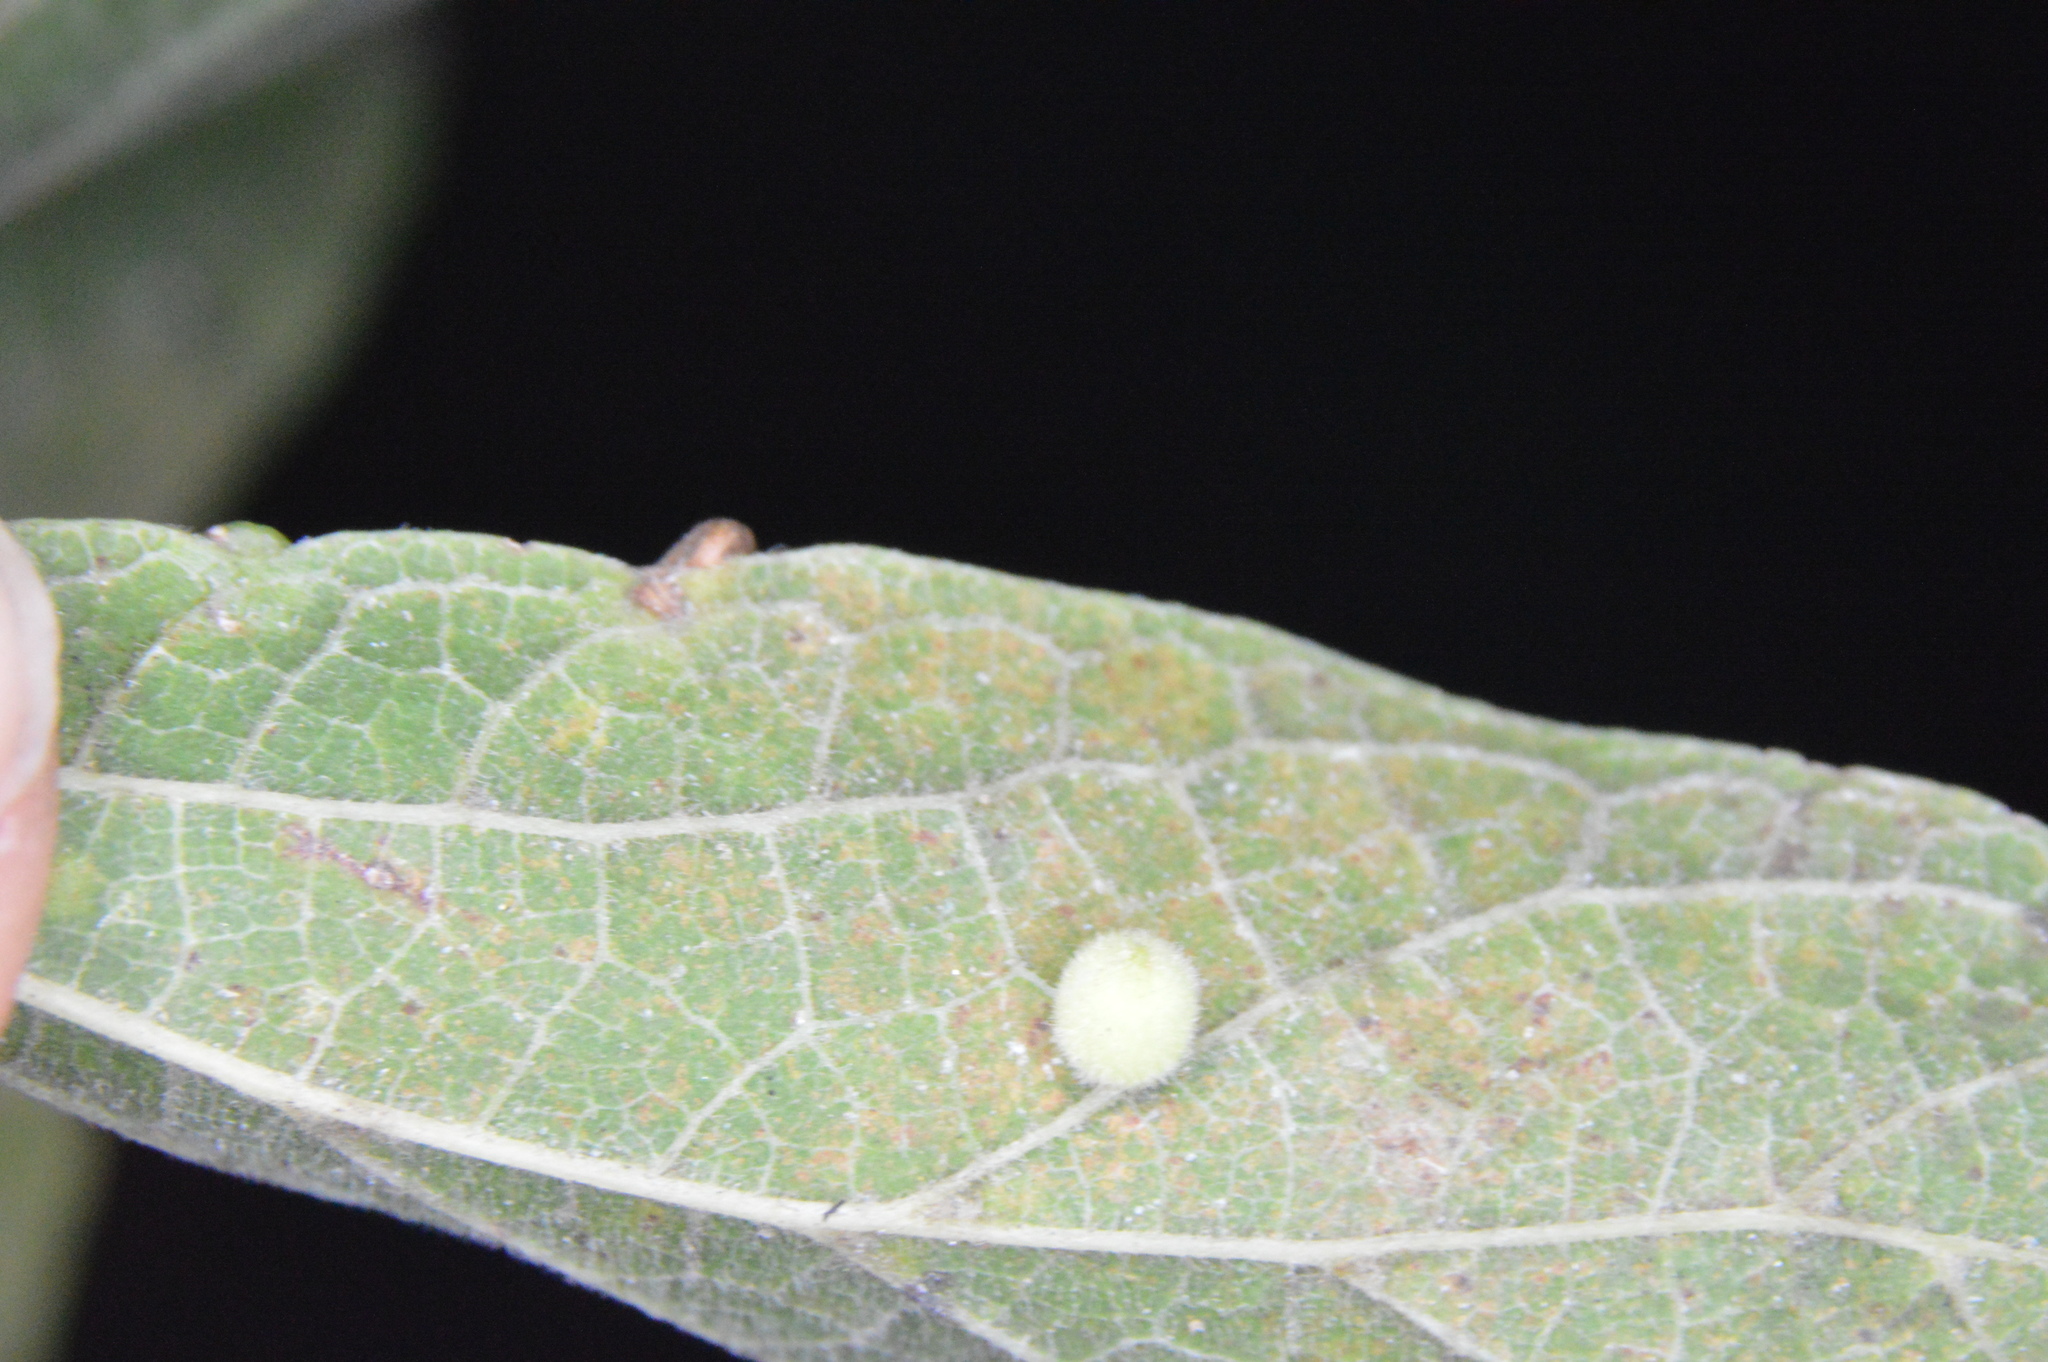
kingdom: Animalia
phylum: Arthropoda
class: Insecta
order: Diptera
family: Cecidomyiidae
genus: Celticecis
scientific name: Celticecis globosa
